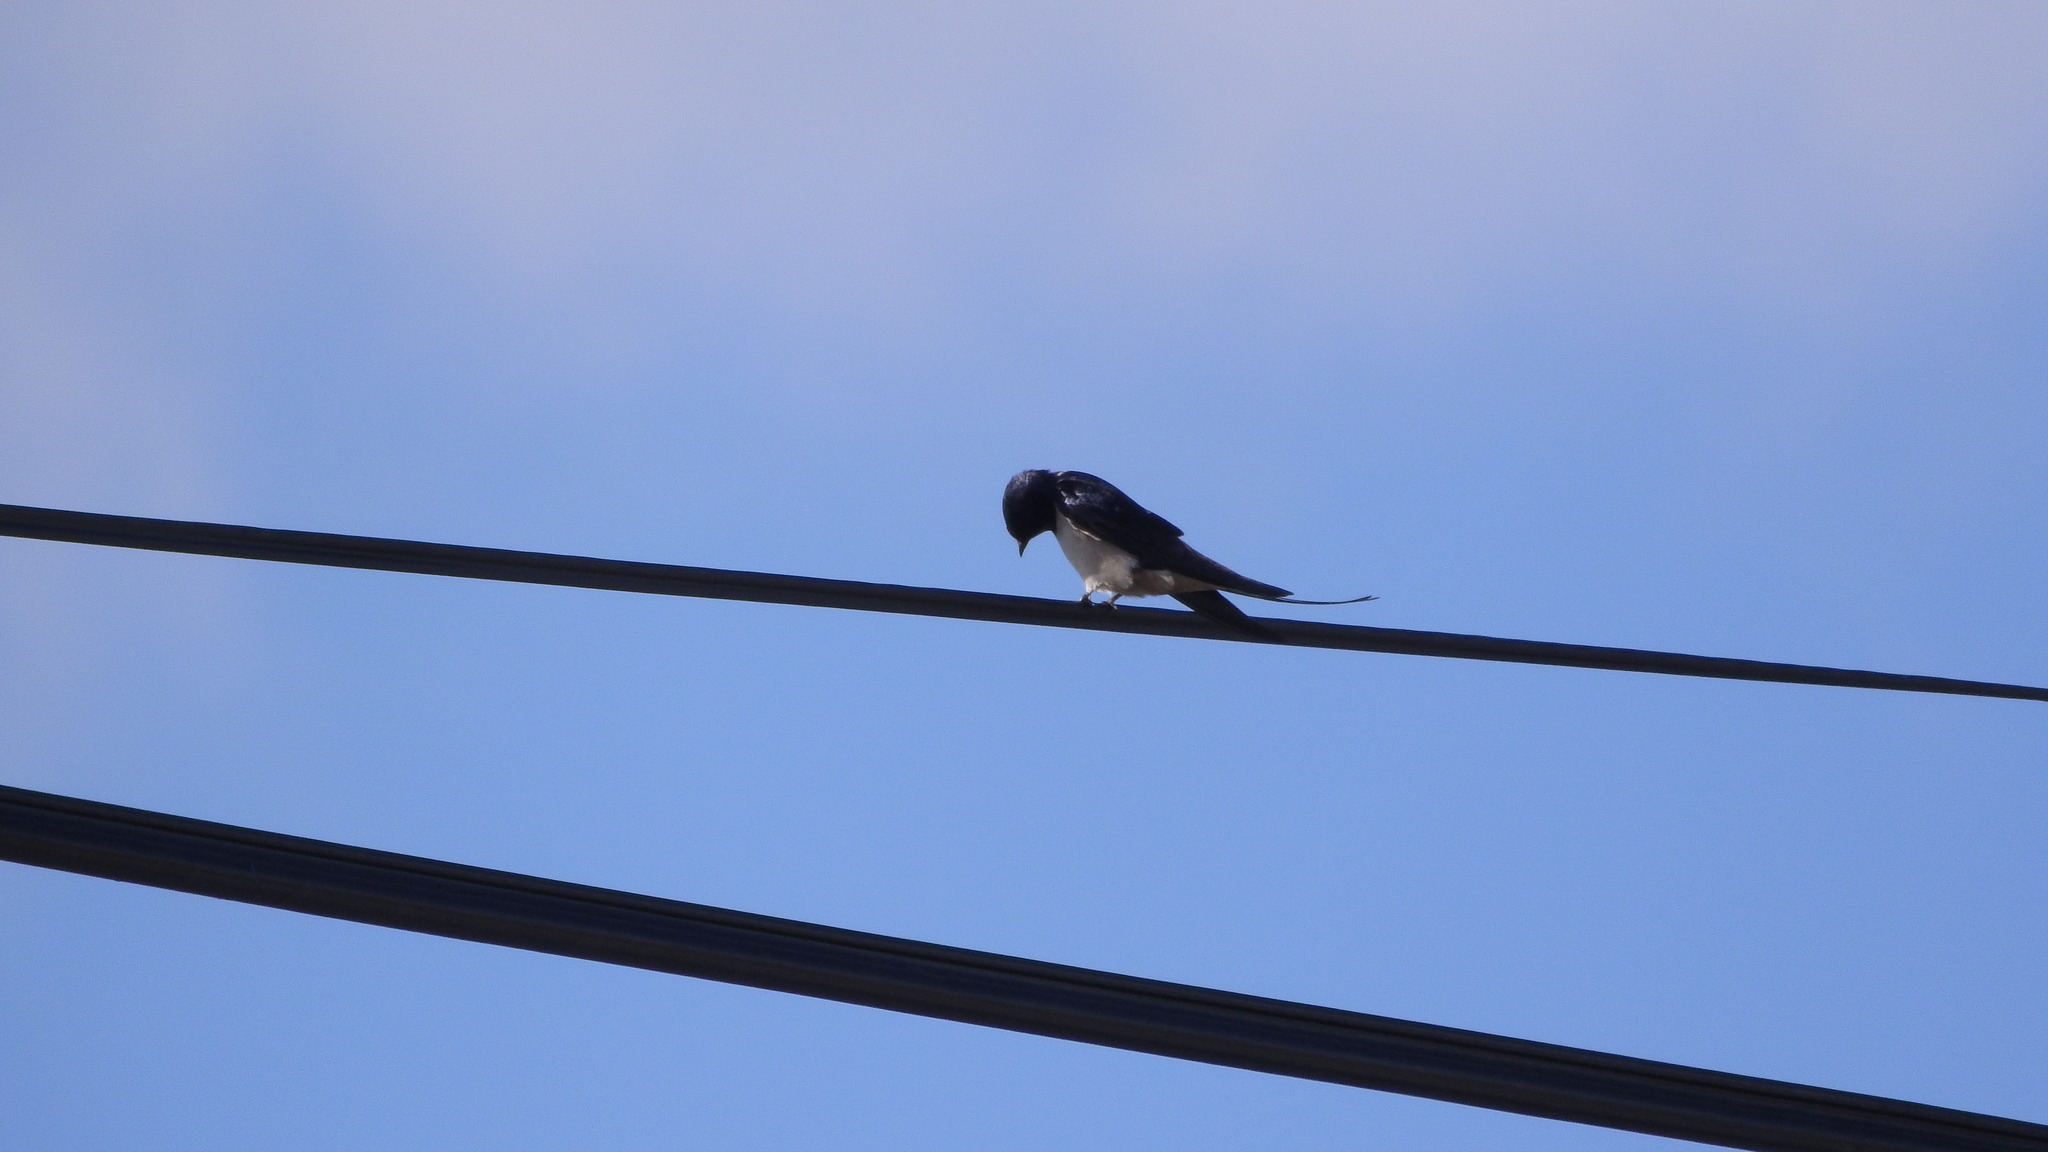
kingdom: Animalia
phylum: Chordata
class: Aves
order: Passeriformes
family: Hirundinidae
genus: Hirundo
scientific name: Hirundo rustica
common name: Barn swallow
